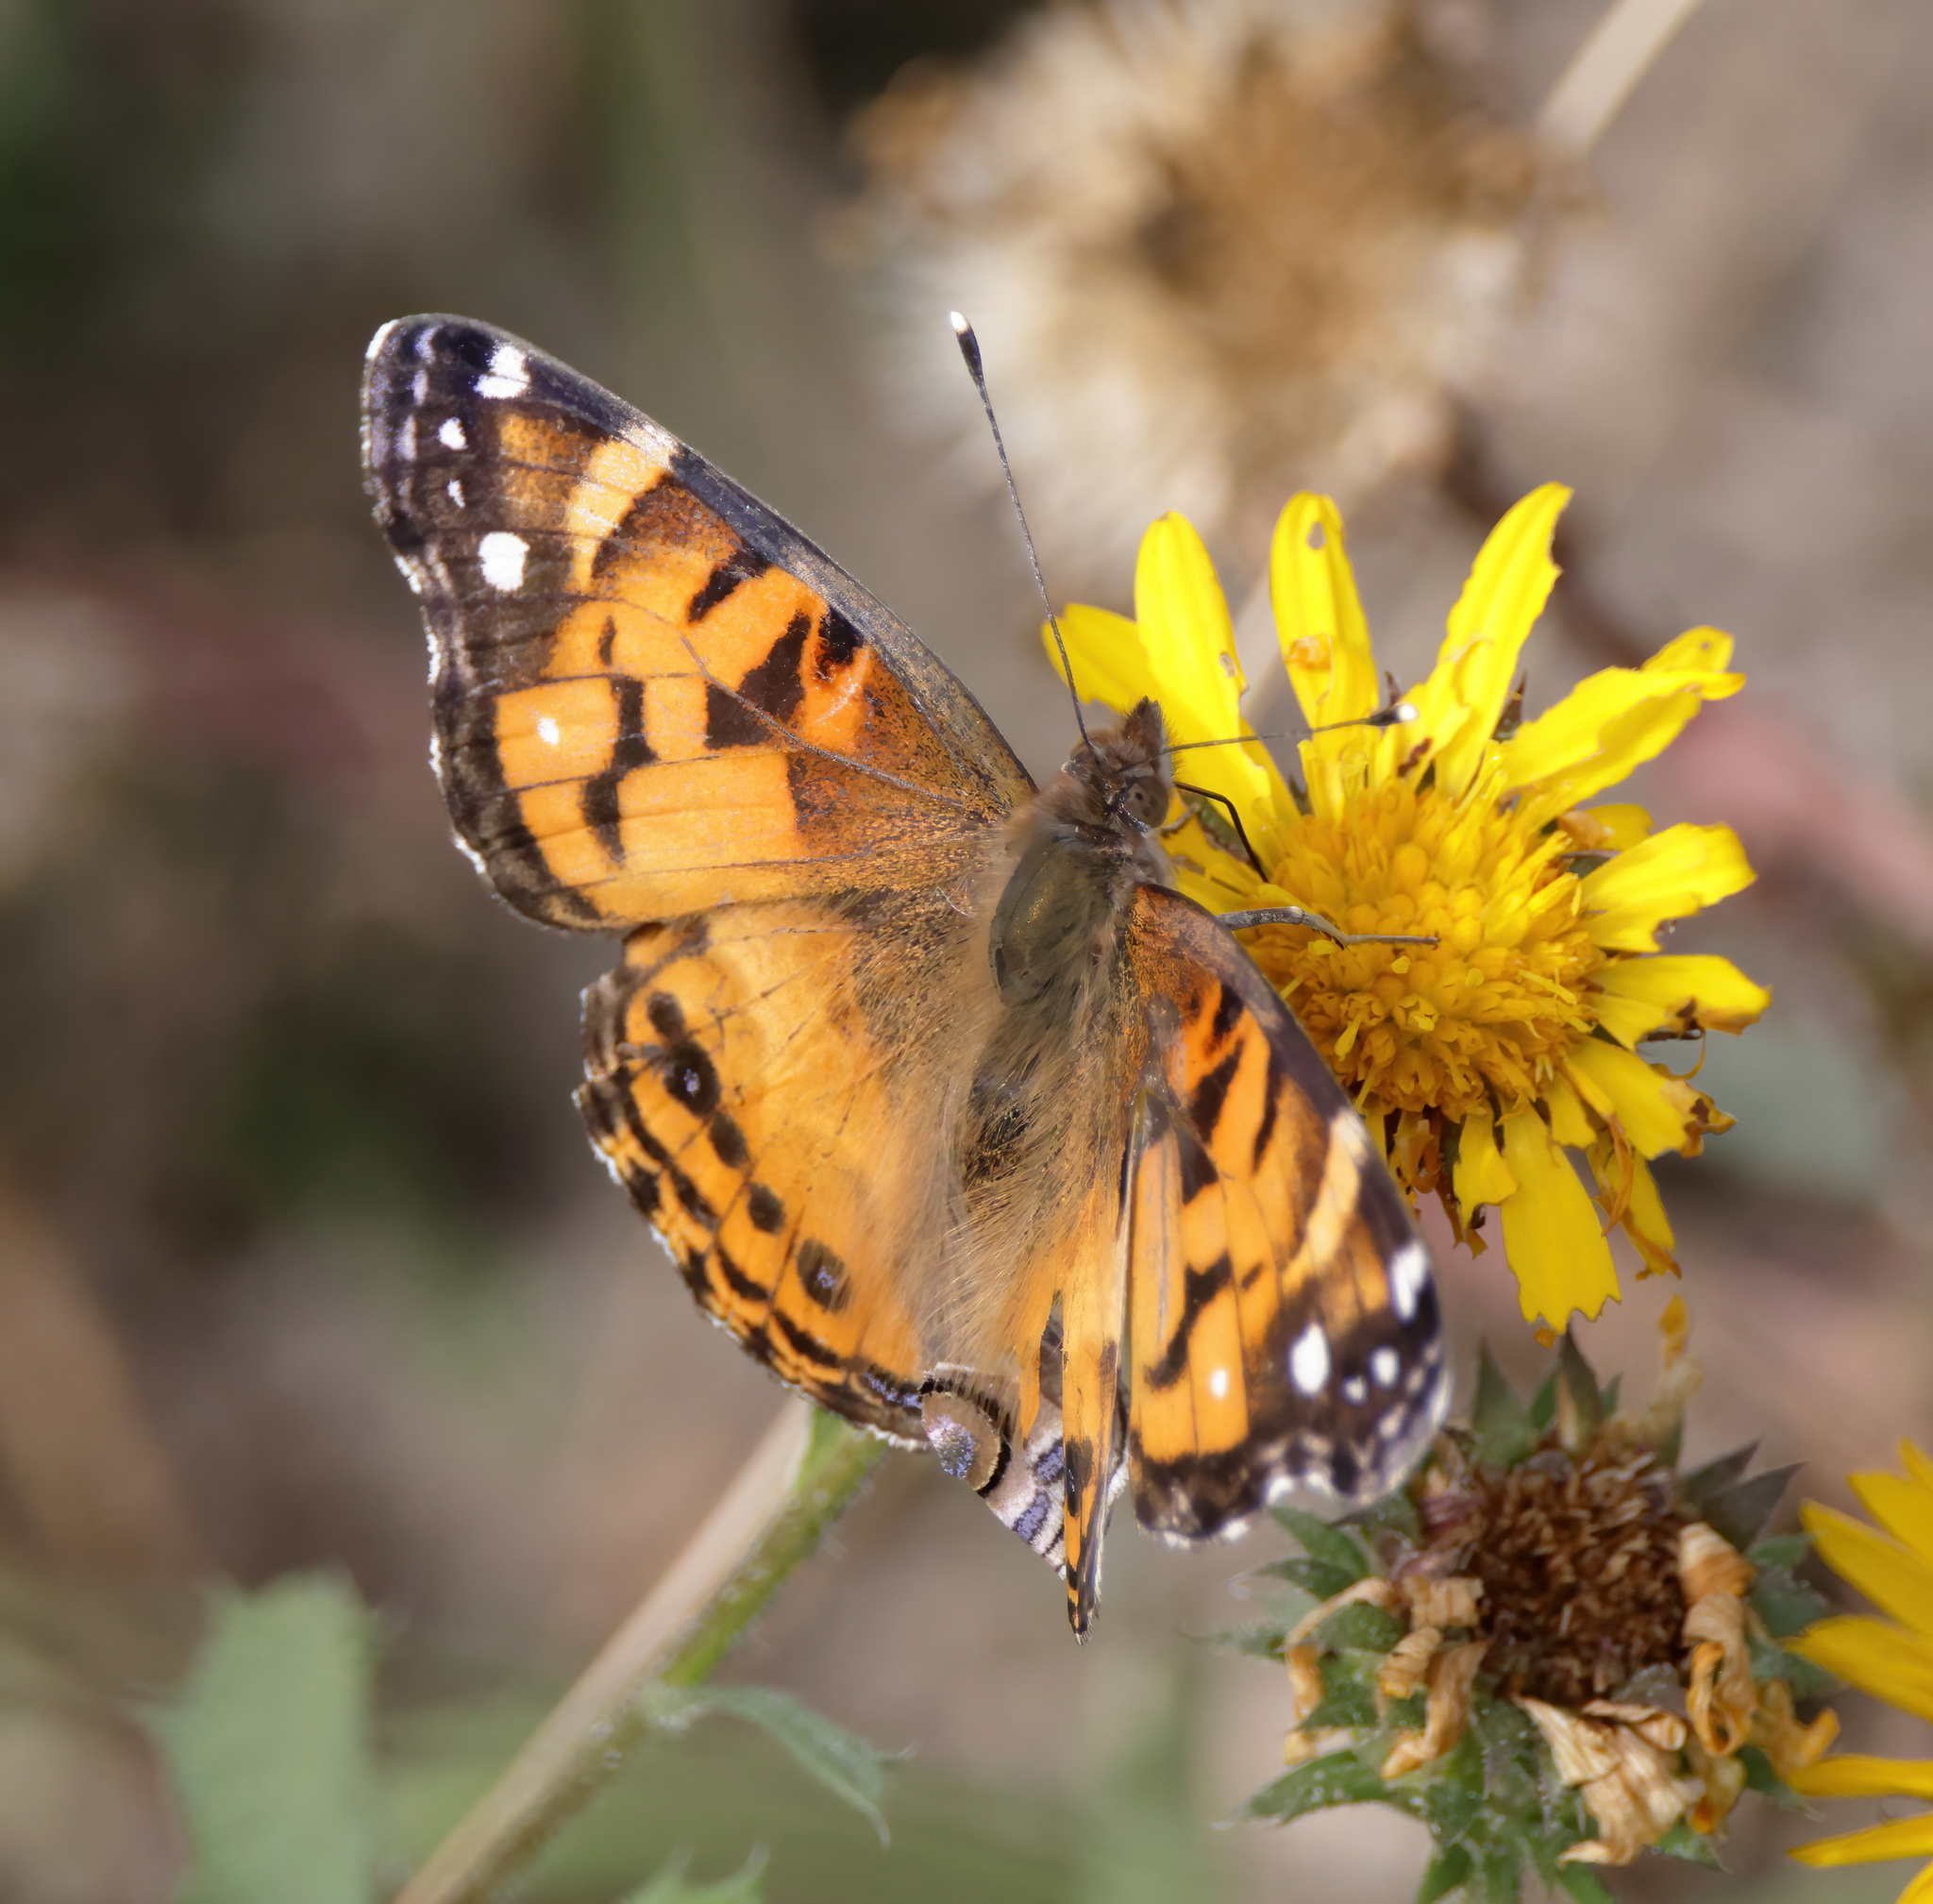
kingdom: Animalia
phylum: Arthropoda
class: Insecta
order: Lepidoptera
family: Nymphalidae
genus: Vanessa
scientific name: Vanessa virginiensis
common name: American lady
